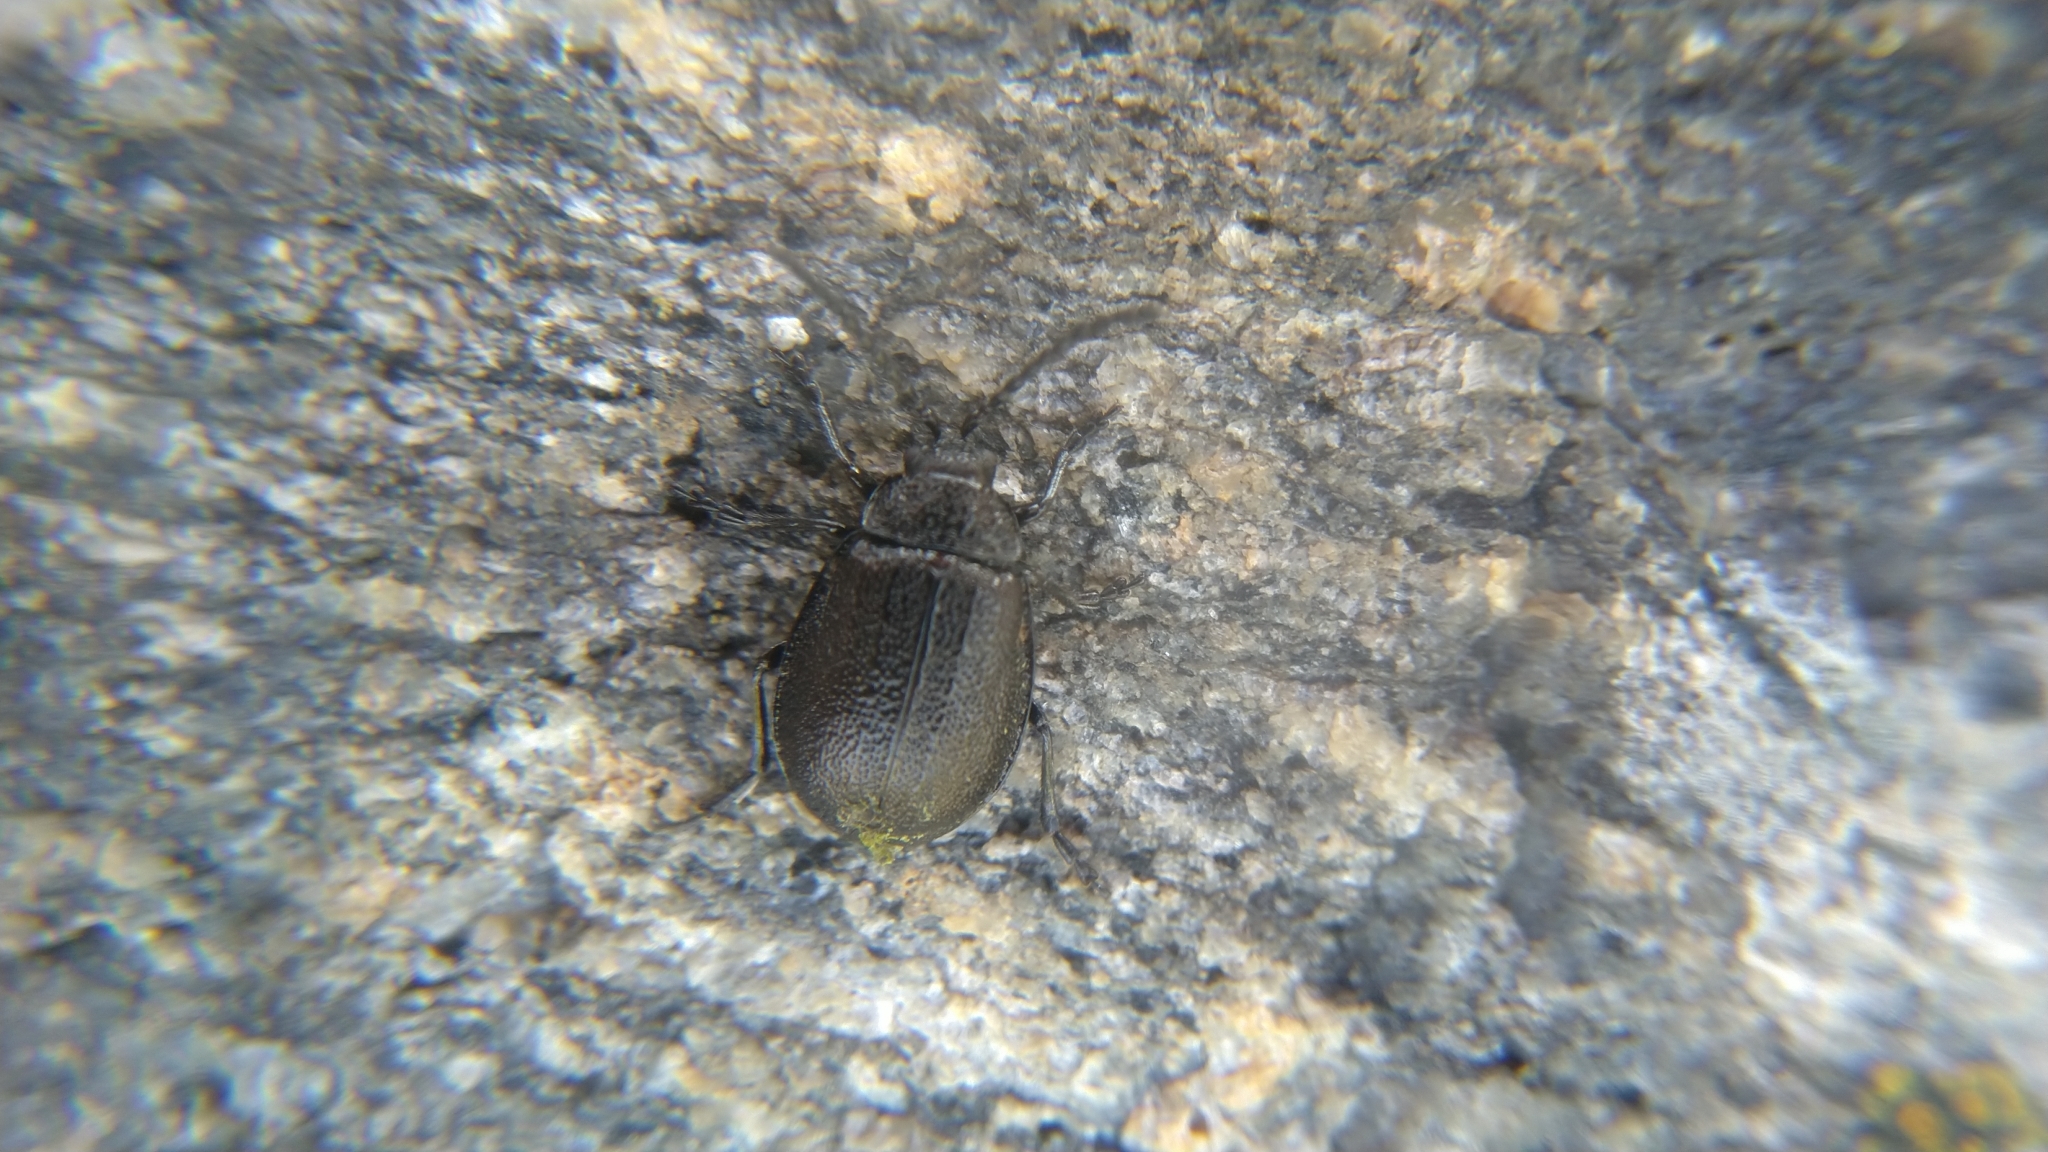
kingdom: Animalia
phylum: Arthropoda
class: Insecta
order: Coleoptera
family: Chrysomelidae
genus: Galeruca
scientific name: Galeruca tanaceti
